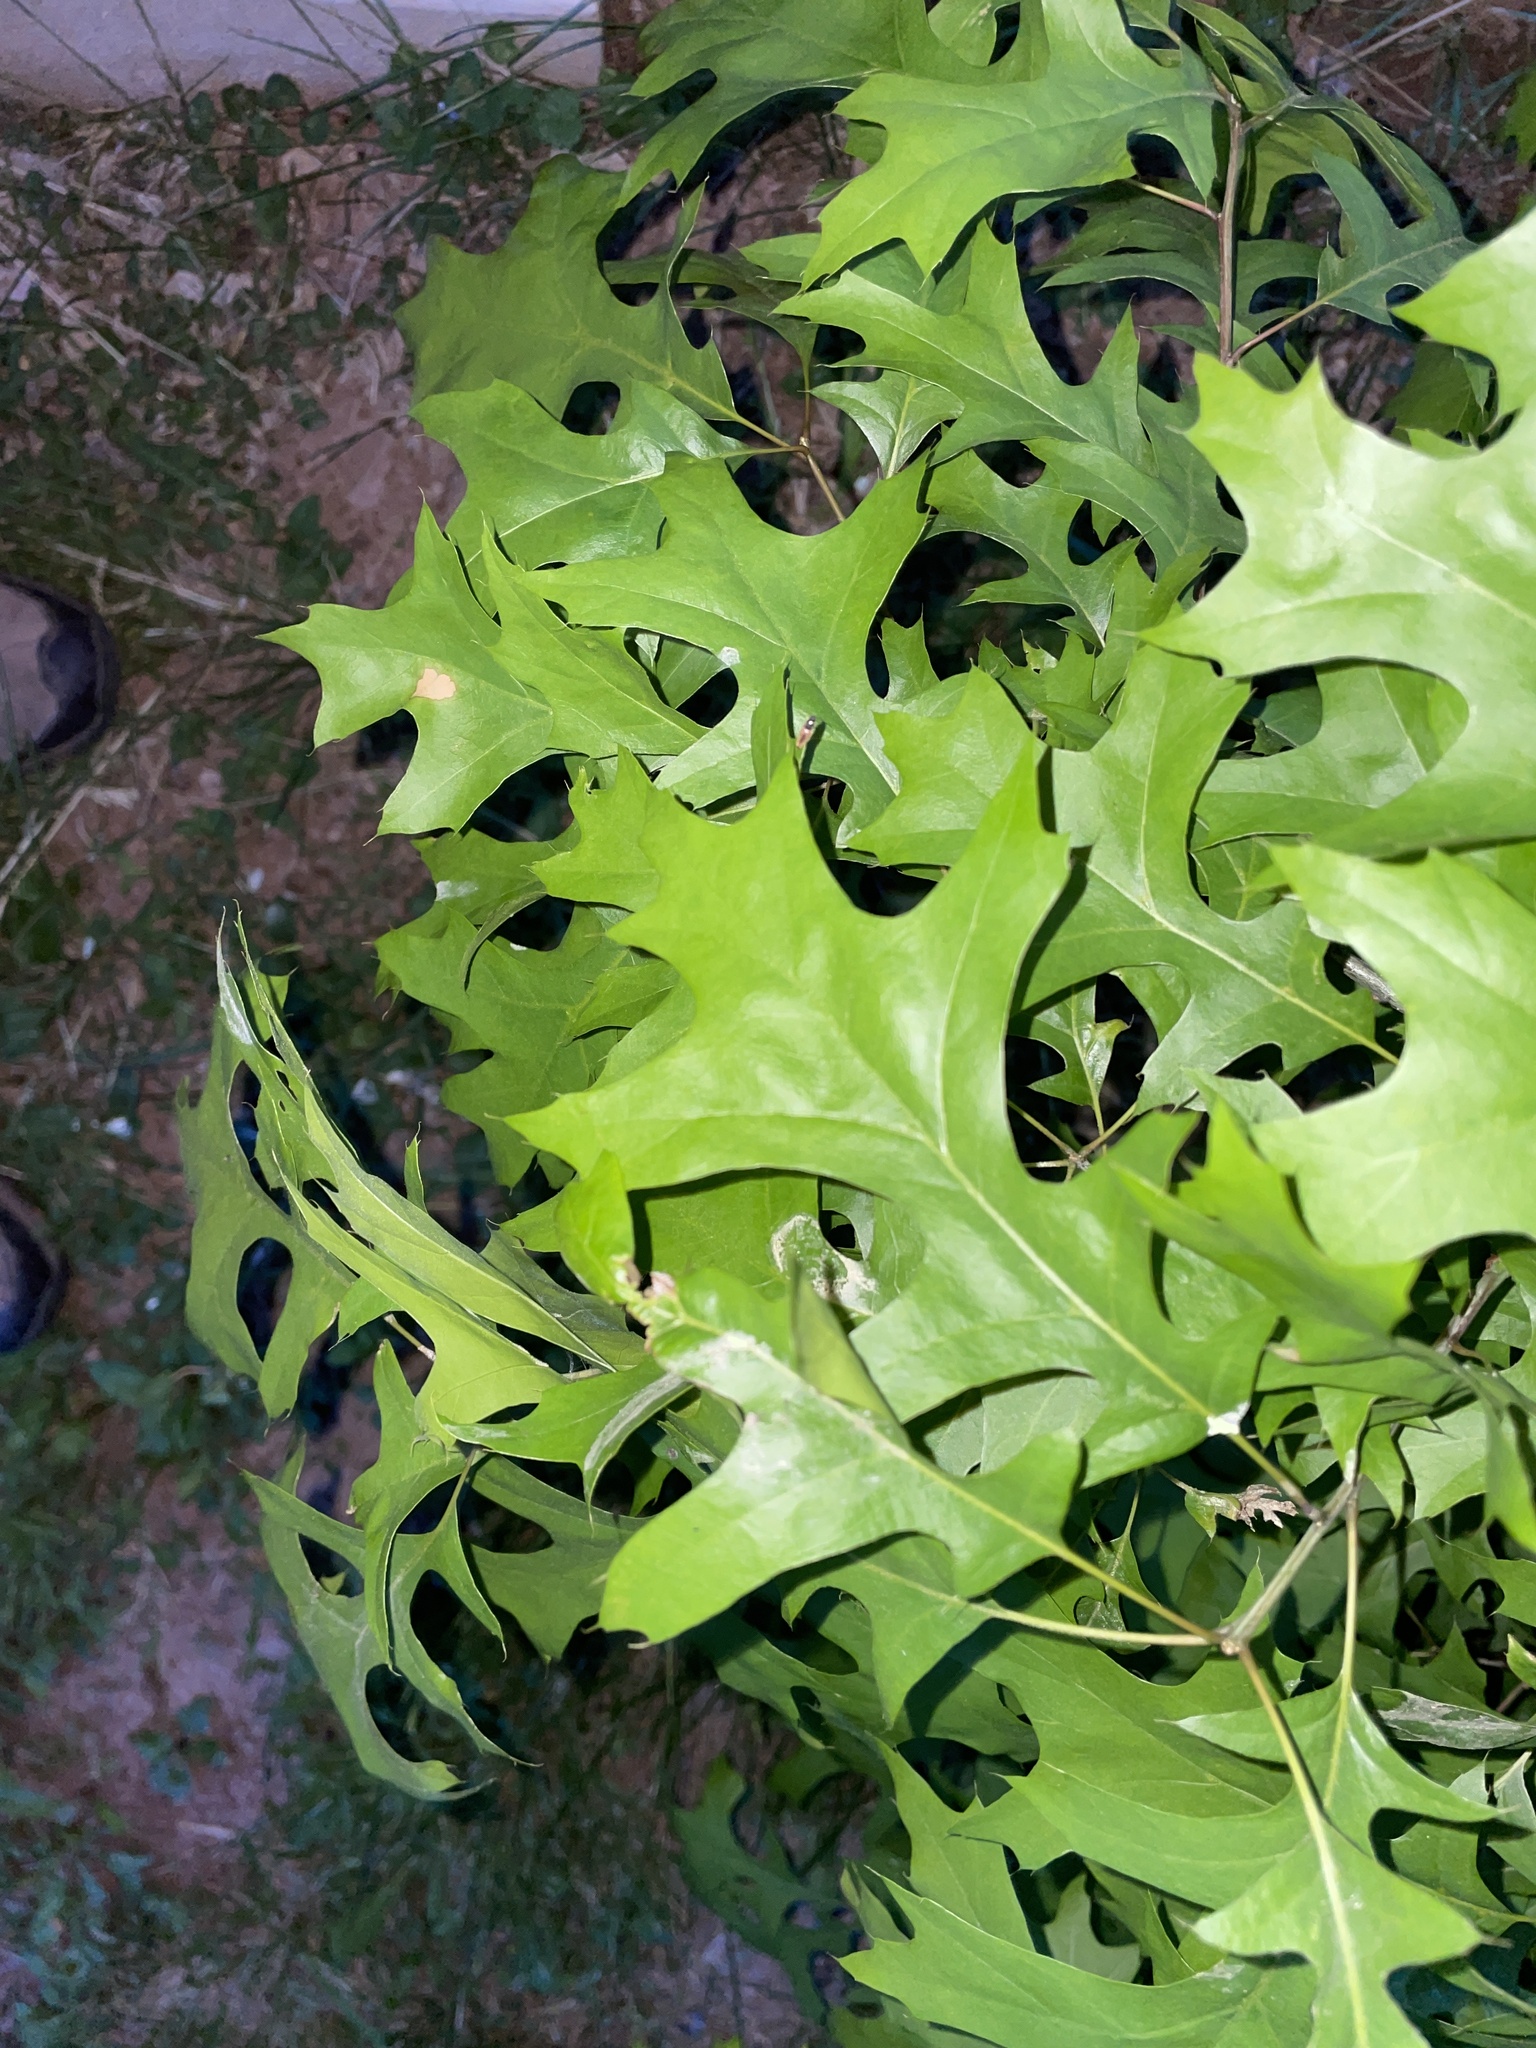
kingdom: Plantae
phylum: Tracheophyta
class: Magnoliopsida
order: Fagales
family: Fagaceae
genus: Quercus
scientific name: Quercus palustris
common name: Pin oak
